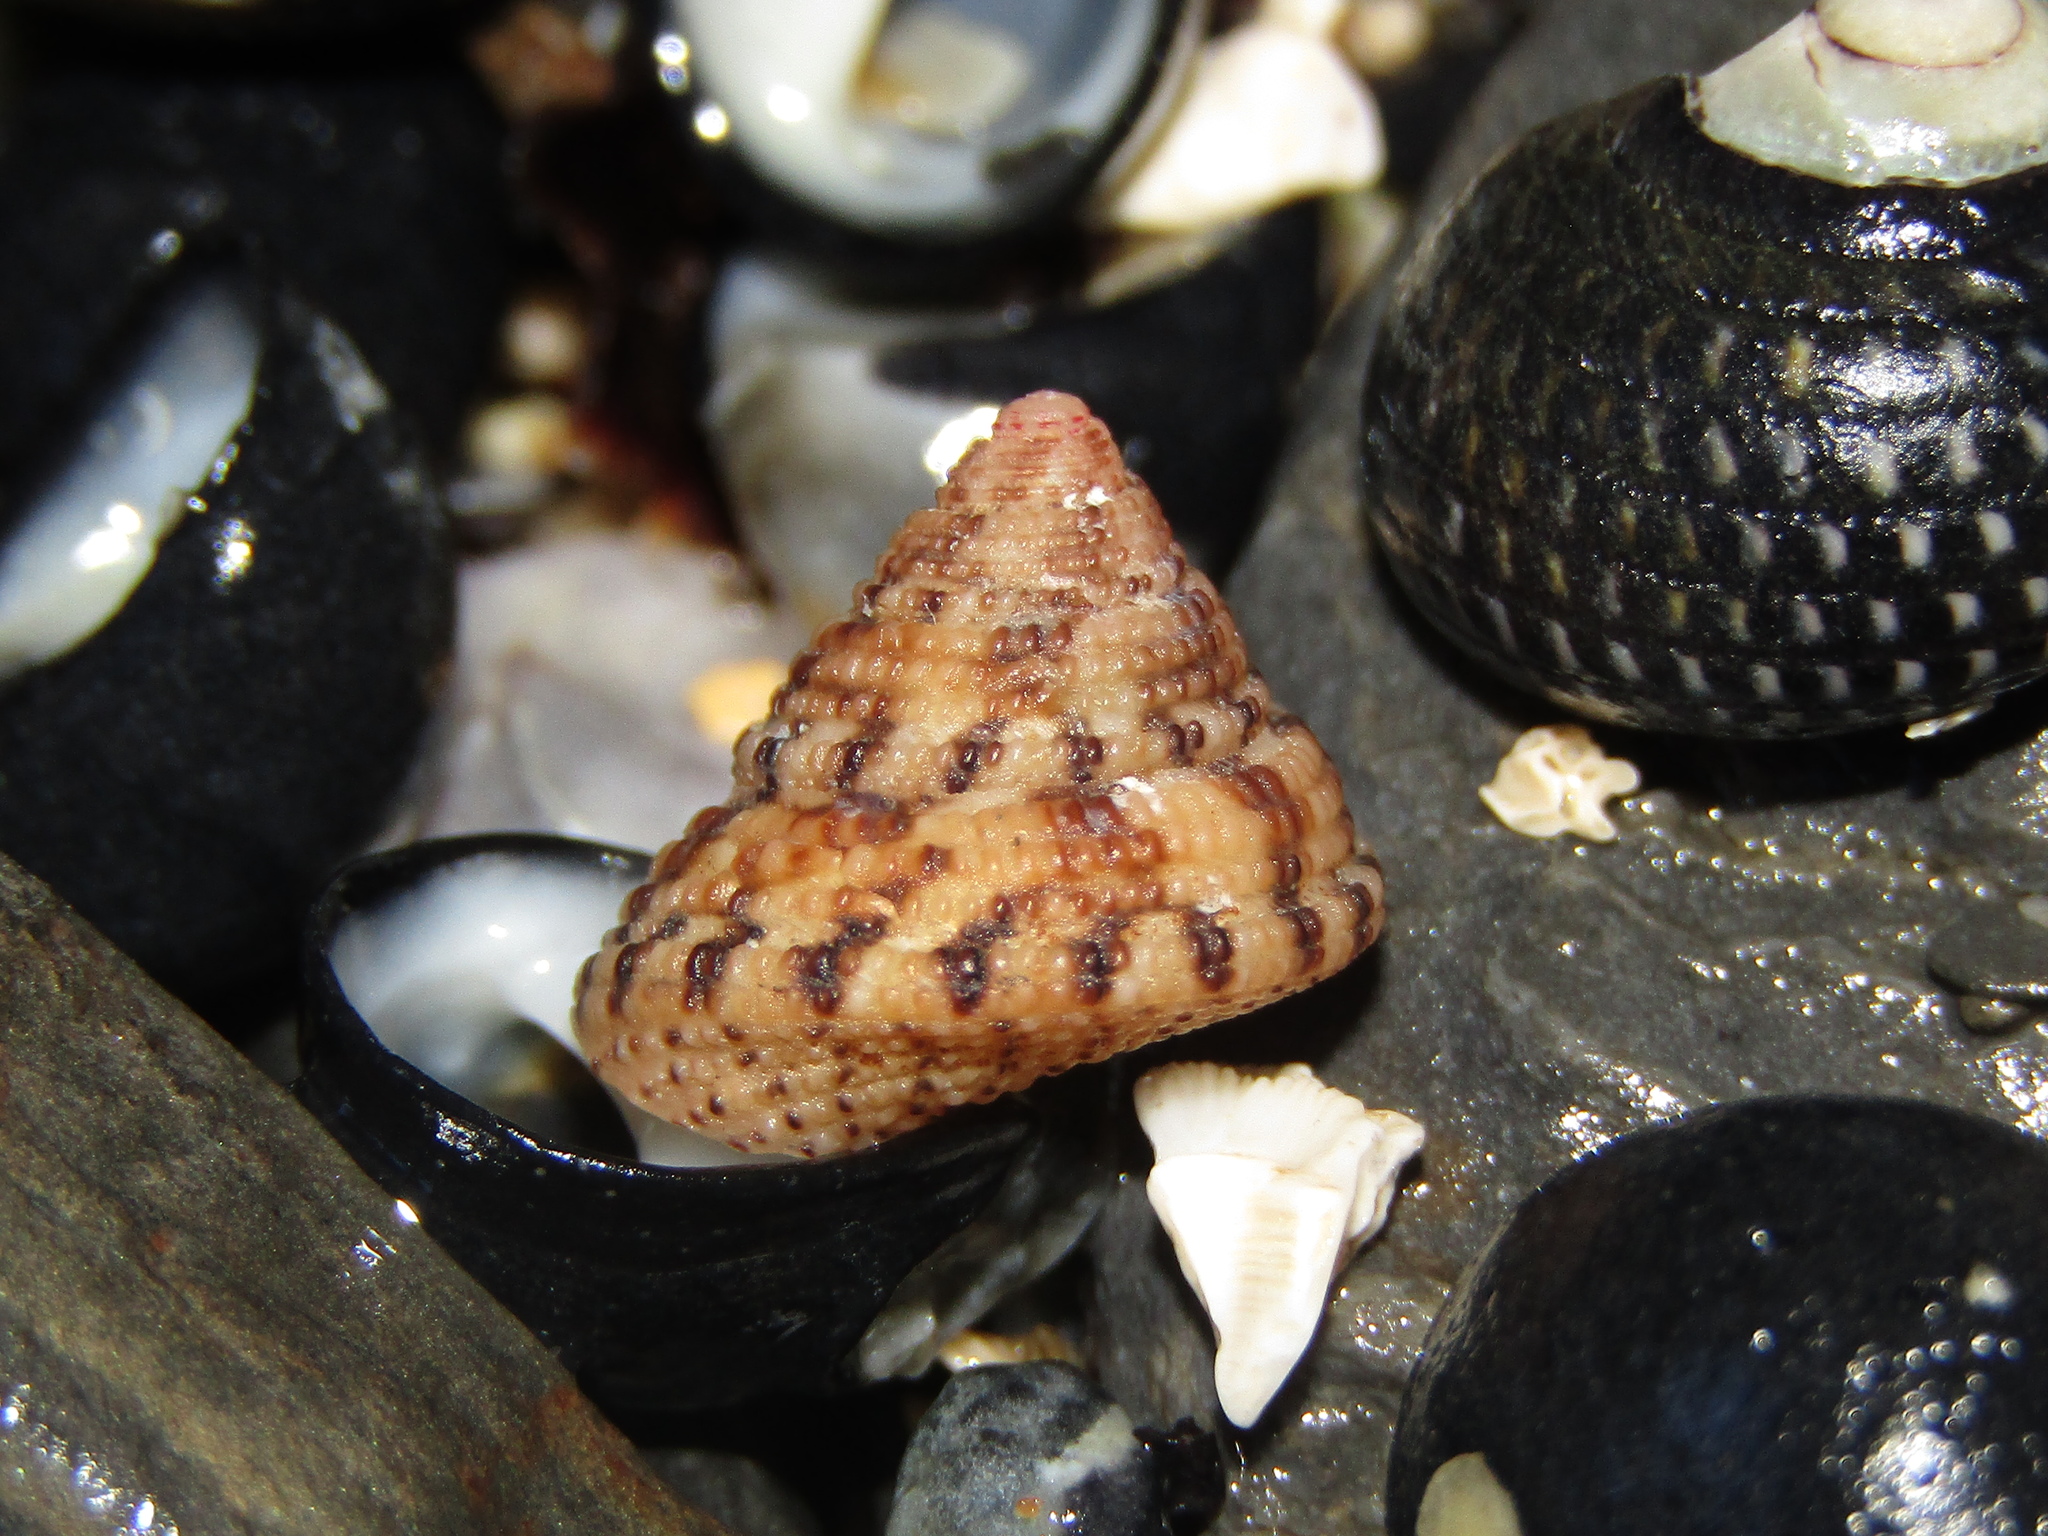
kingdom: Animalia
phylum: Mollusca
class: Gastropoda
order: Trochida
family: Trochidae
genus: Clanculus
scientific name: Clanculus peccatus
